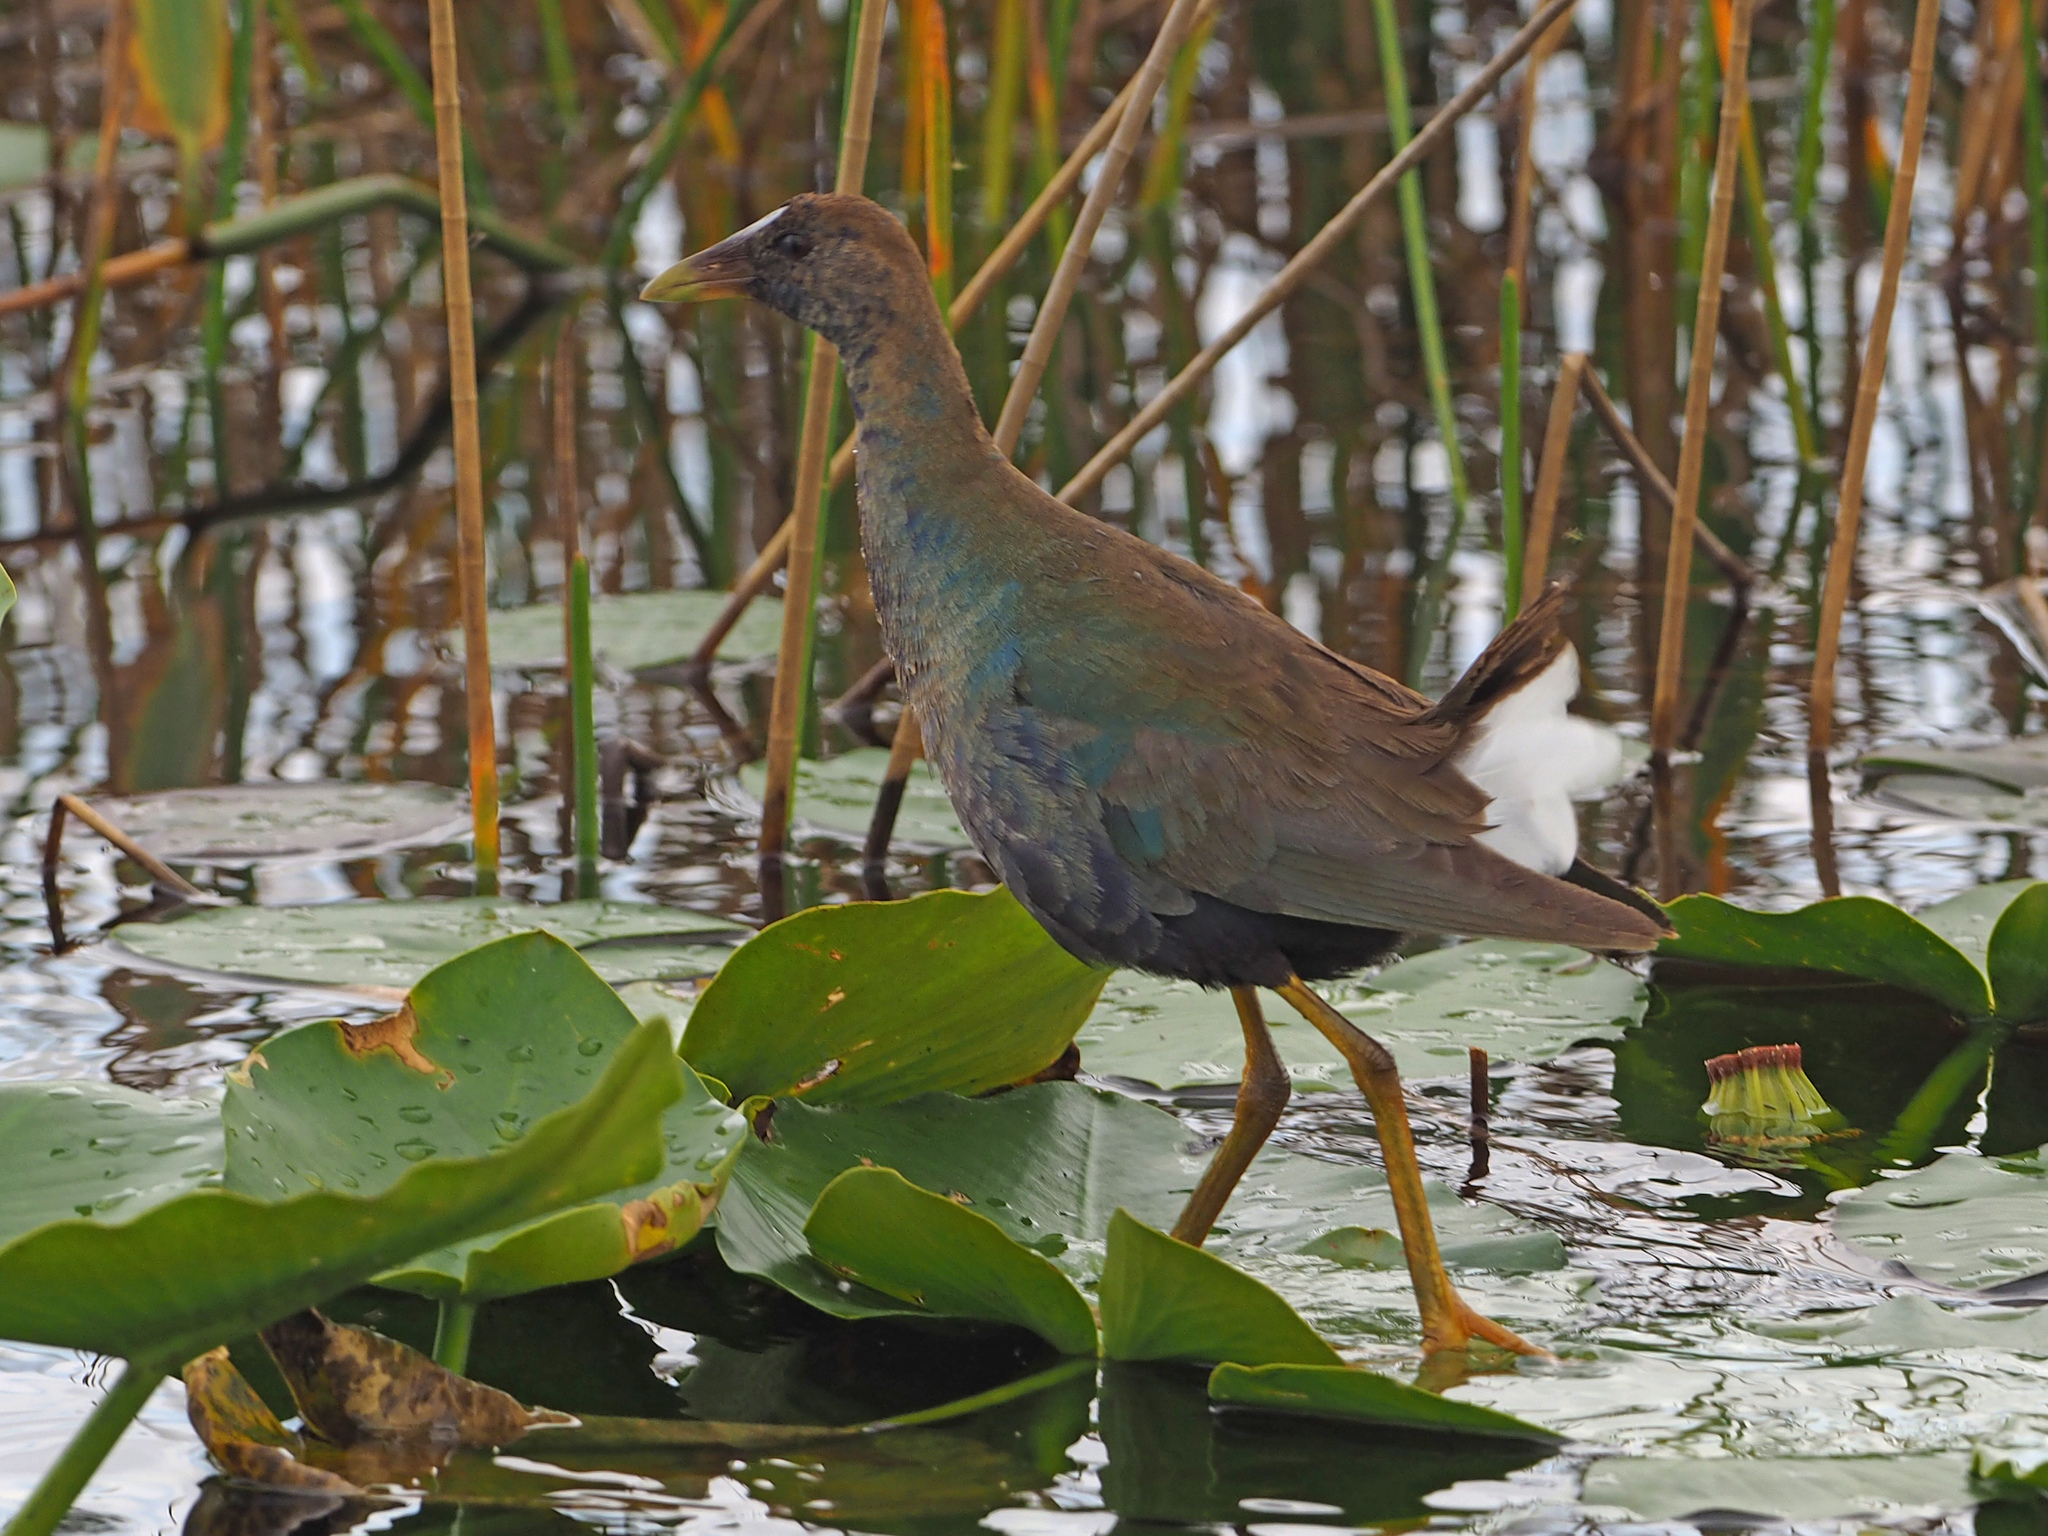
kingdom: Animalia
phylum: Chordata
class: Aves
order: Gruiformes
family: Rallidae
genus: Porphyrio
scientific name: Porphyrio martinica
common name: Purple gallinule
